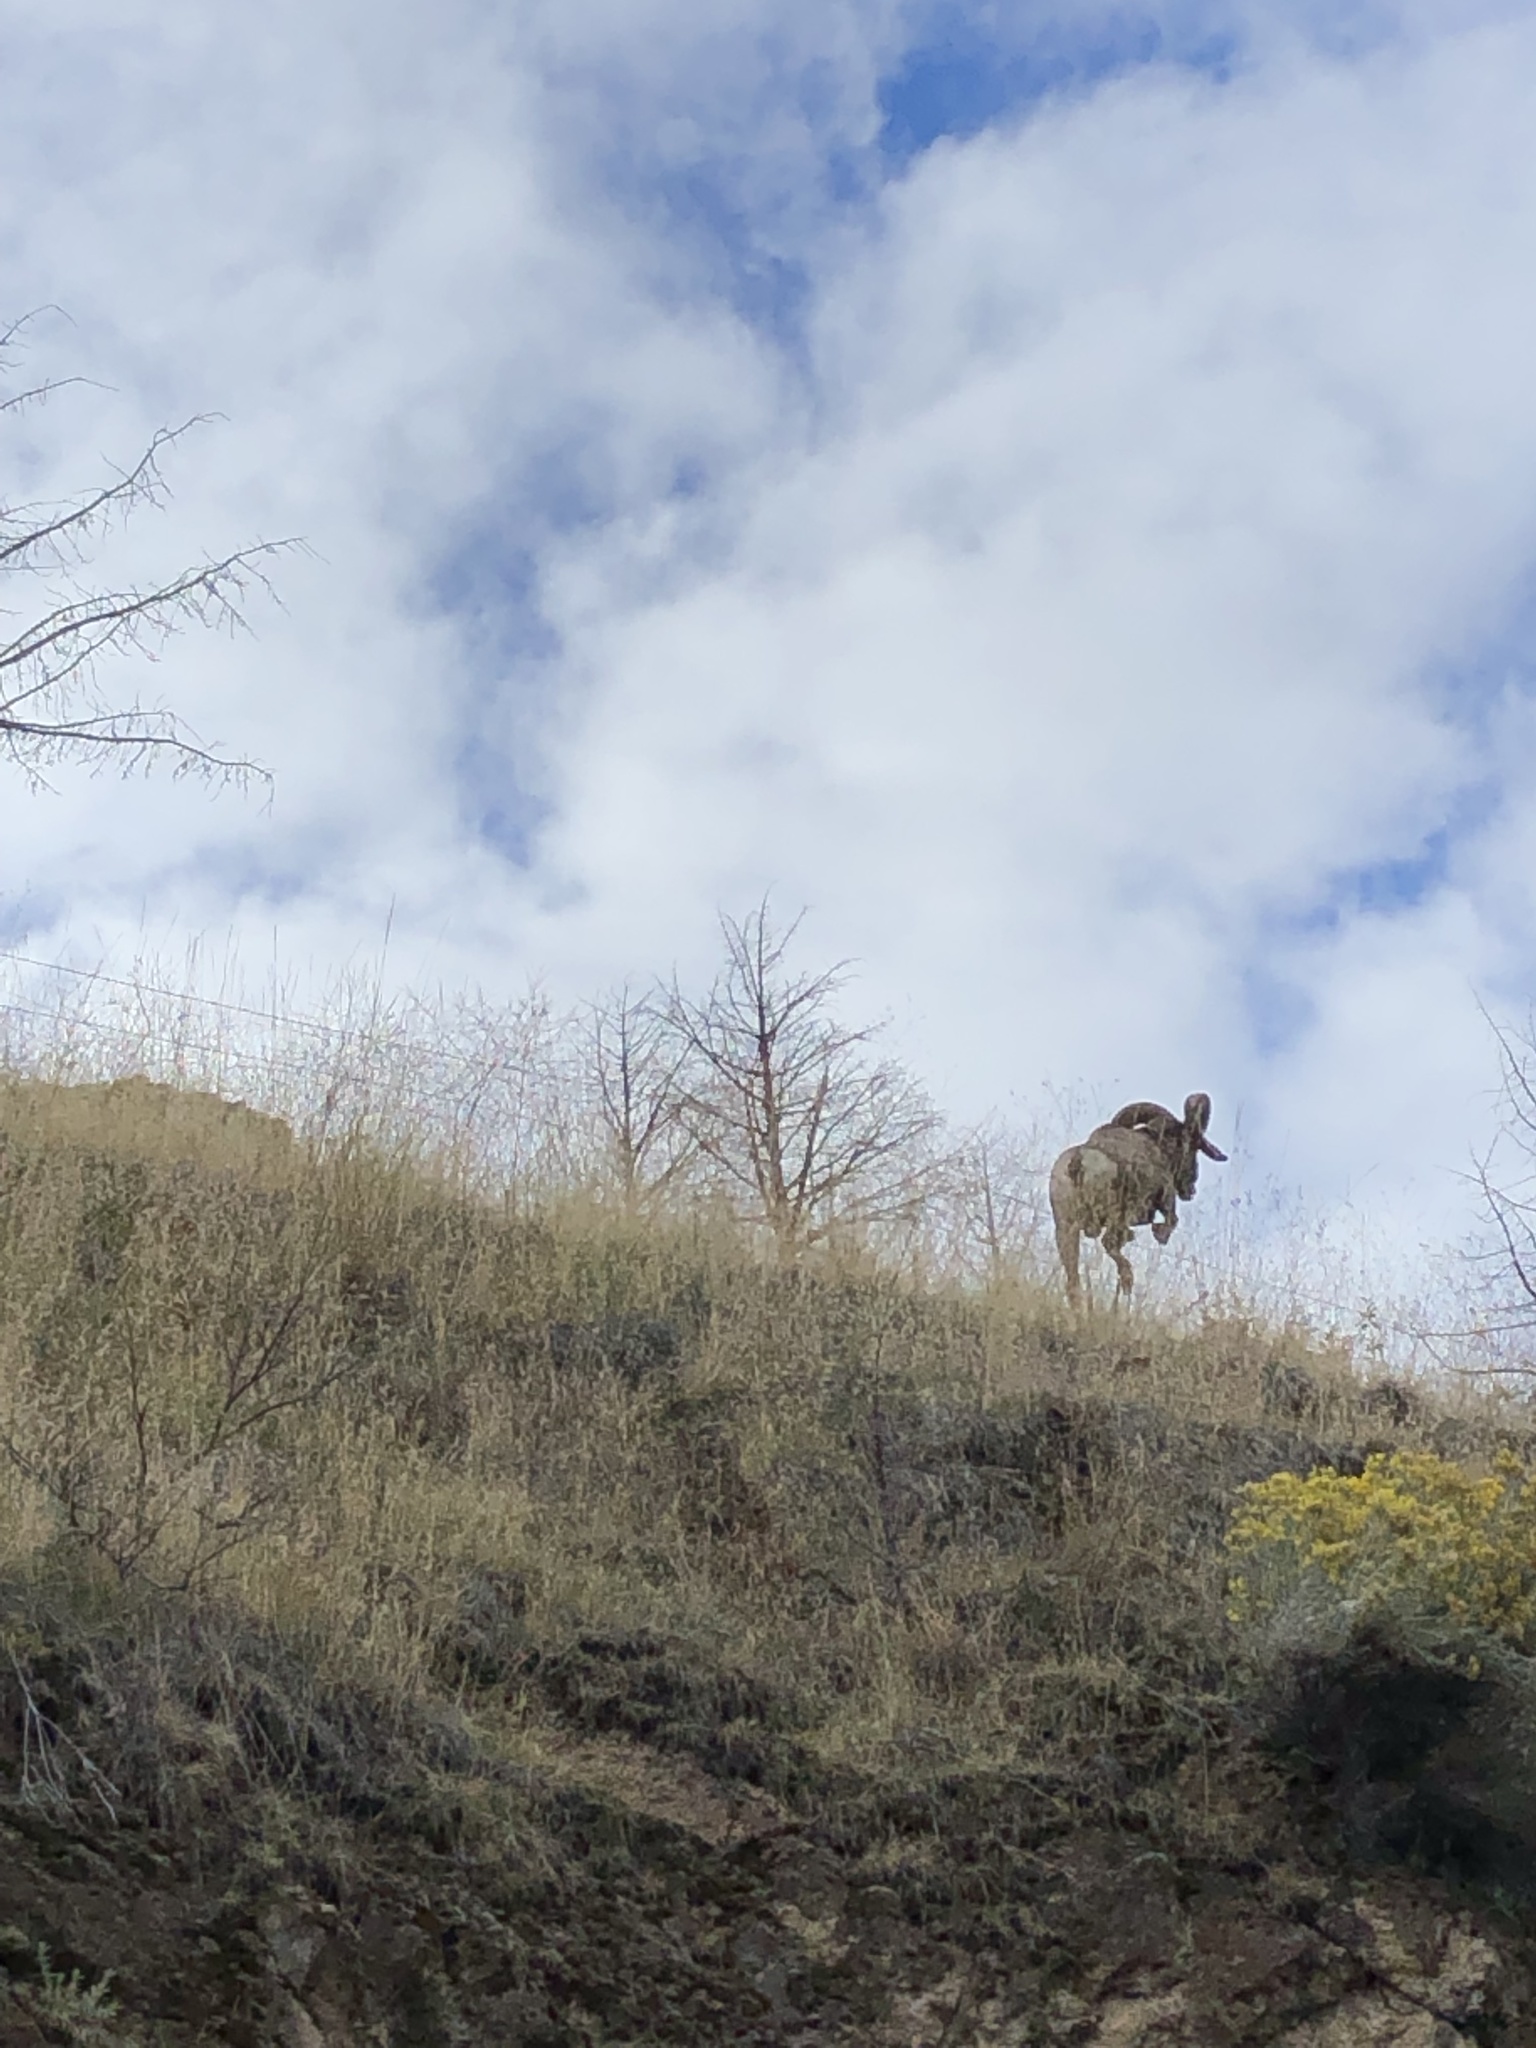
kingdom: Animalia
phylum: Chordata
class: Mammalia
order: Artiodactyla
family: Bovidae
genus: Ovis
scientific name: Ovis canadensis
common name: Bighorn sheep
